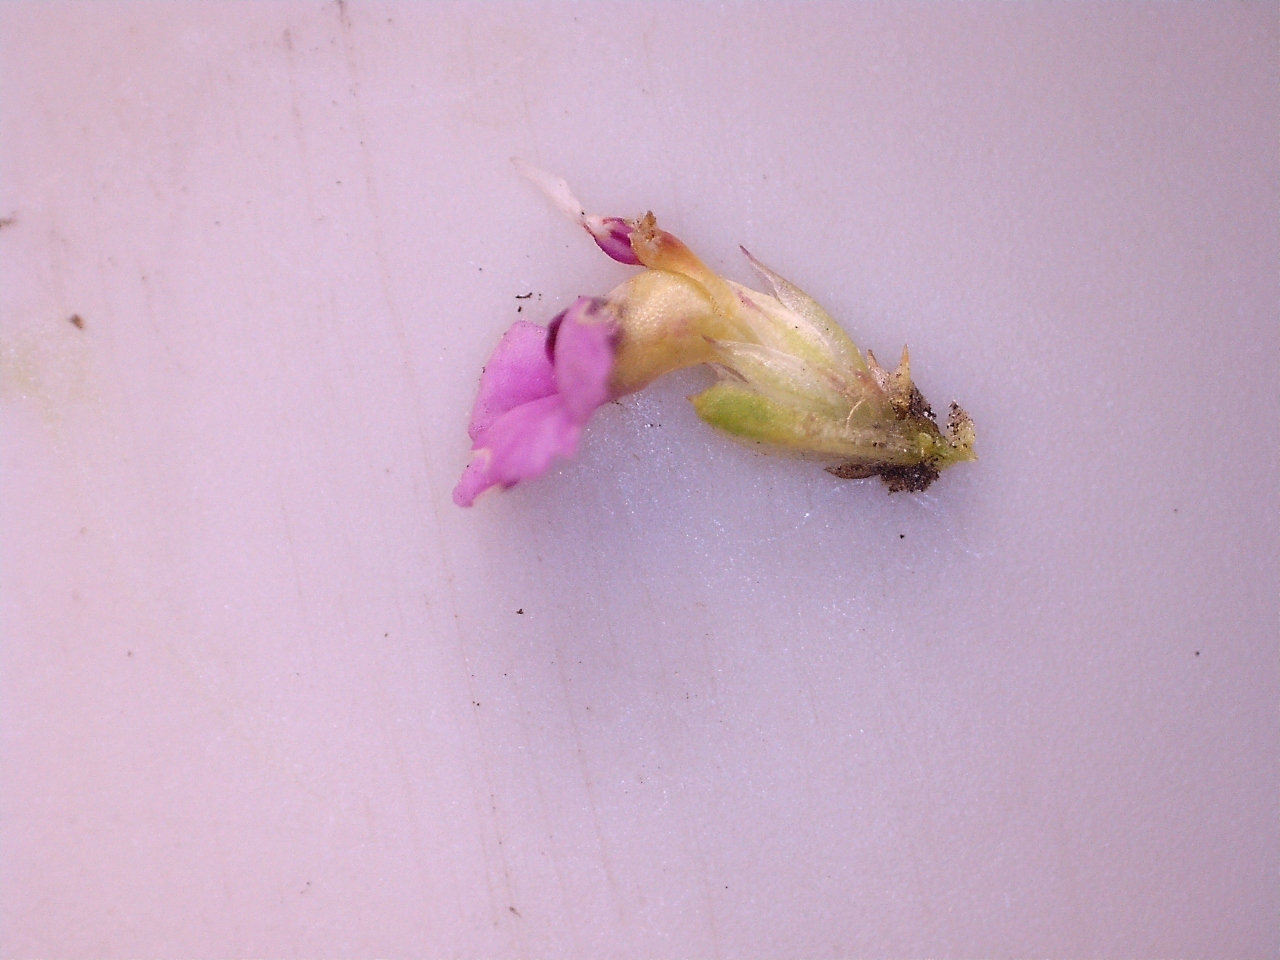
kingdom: Plantae
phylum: Tracheophyta
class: Magnoliopsida
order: Fabales
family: Polygalaceae
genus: Muraltia
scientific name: Muraltia schlechteri
